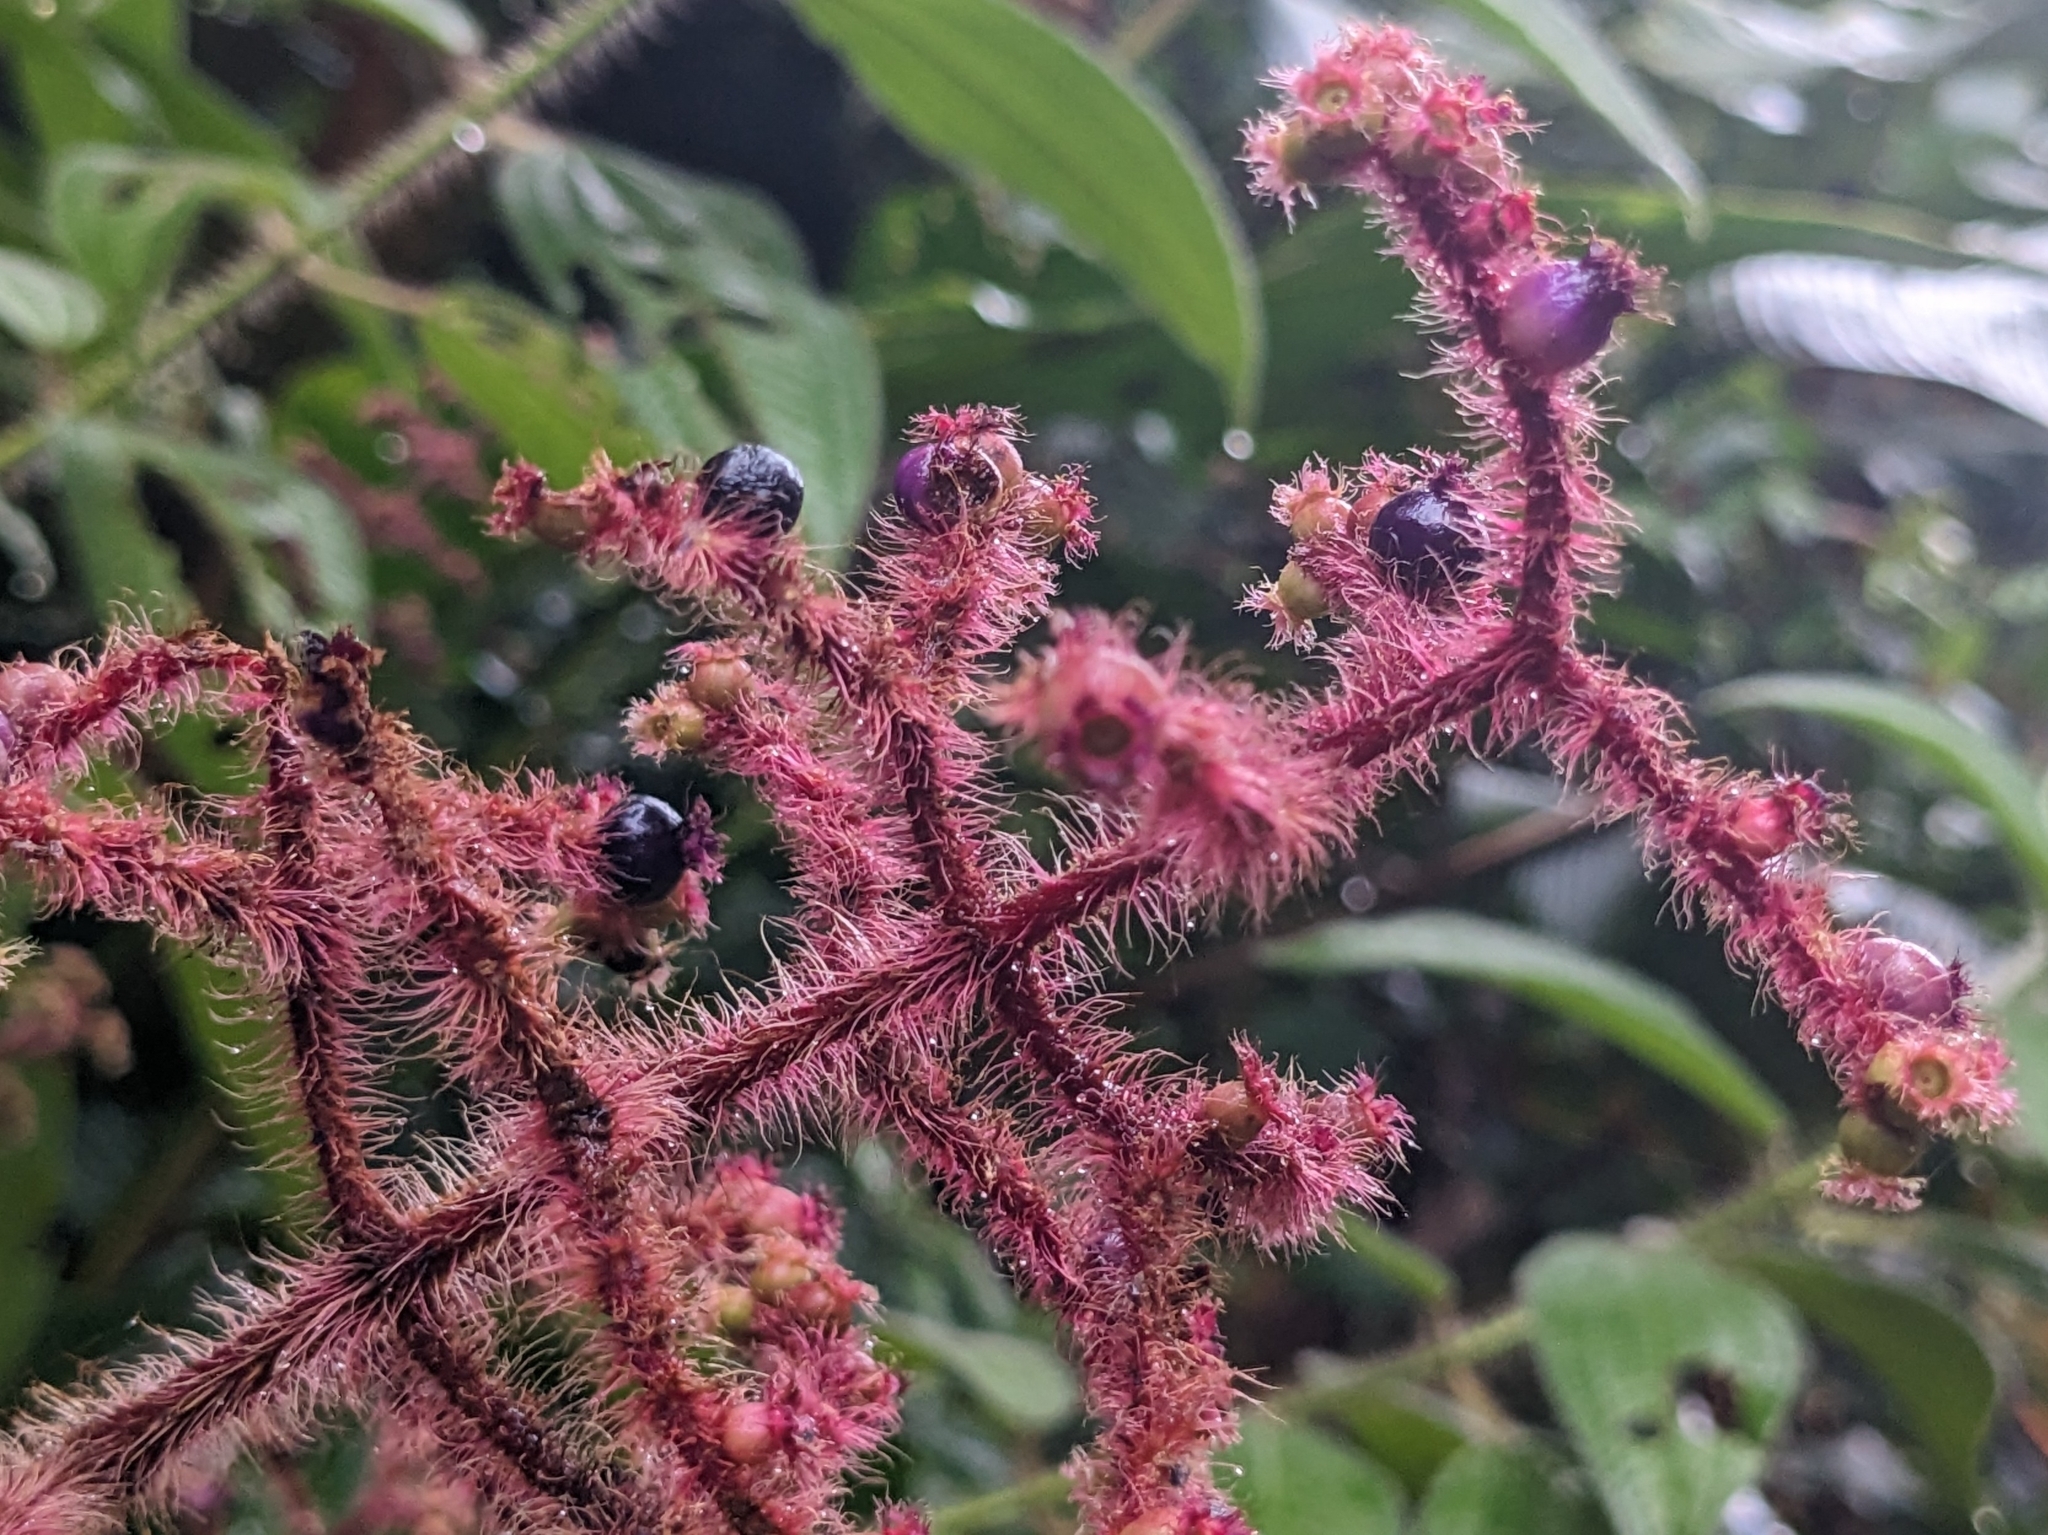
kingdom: Plantae
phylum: Tracheophyta
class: Magnoliopsida
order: Myrtales
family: Melastomataceae
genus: Miconia
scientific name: Miconia lacera
